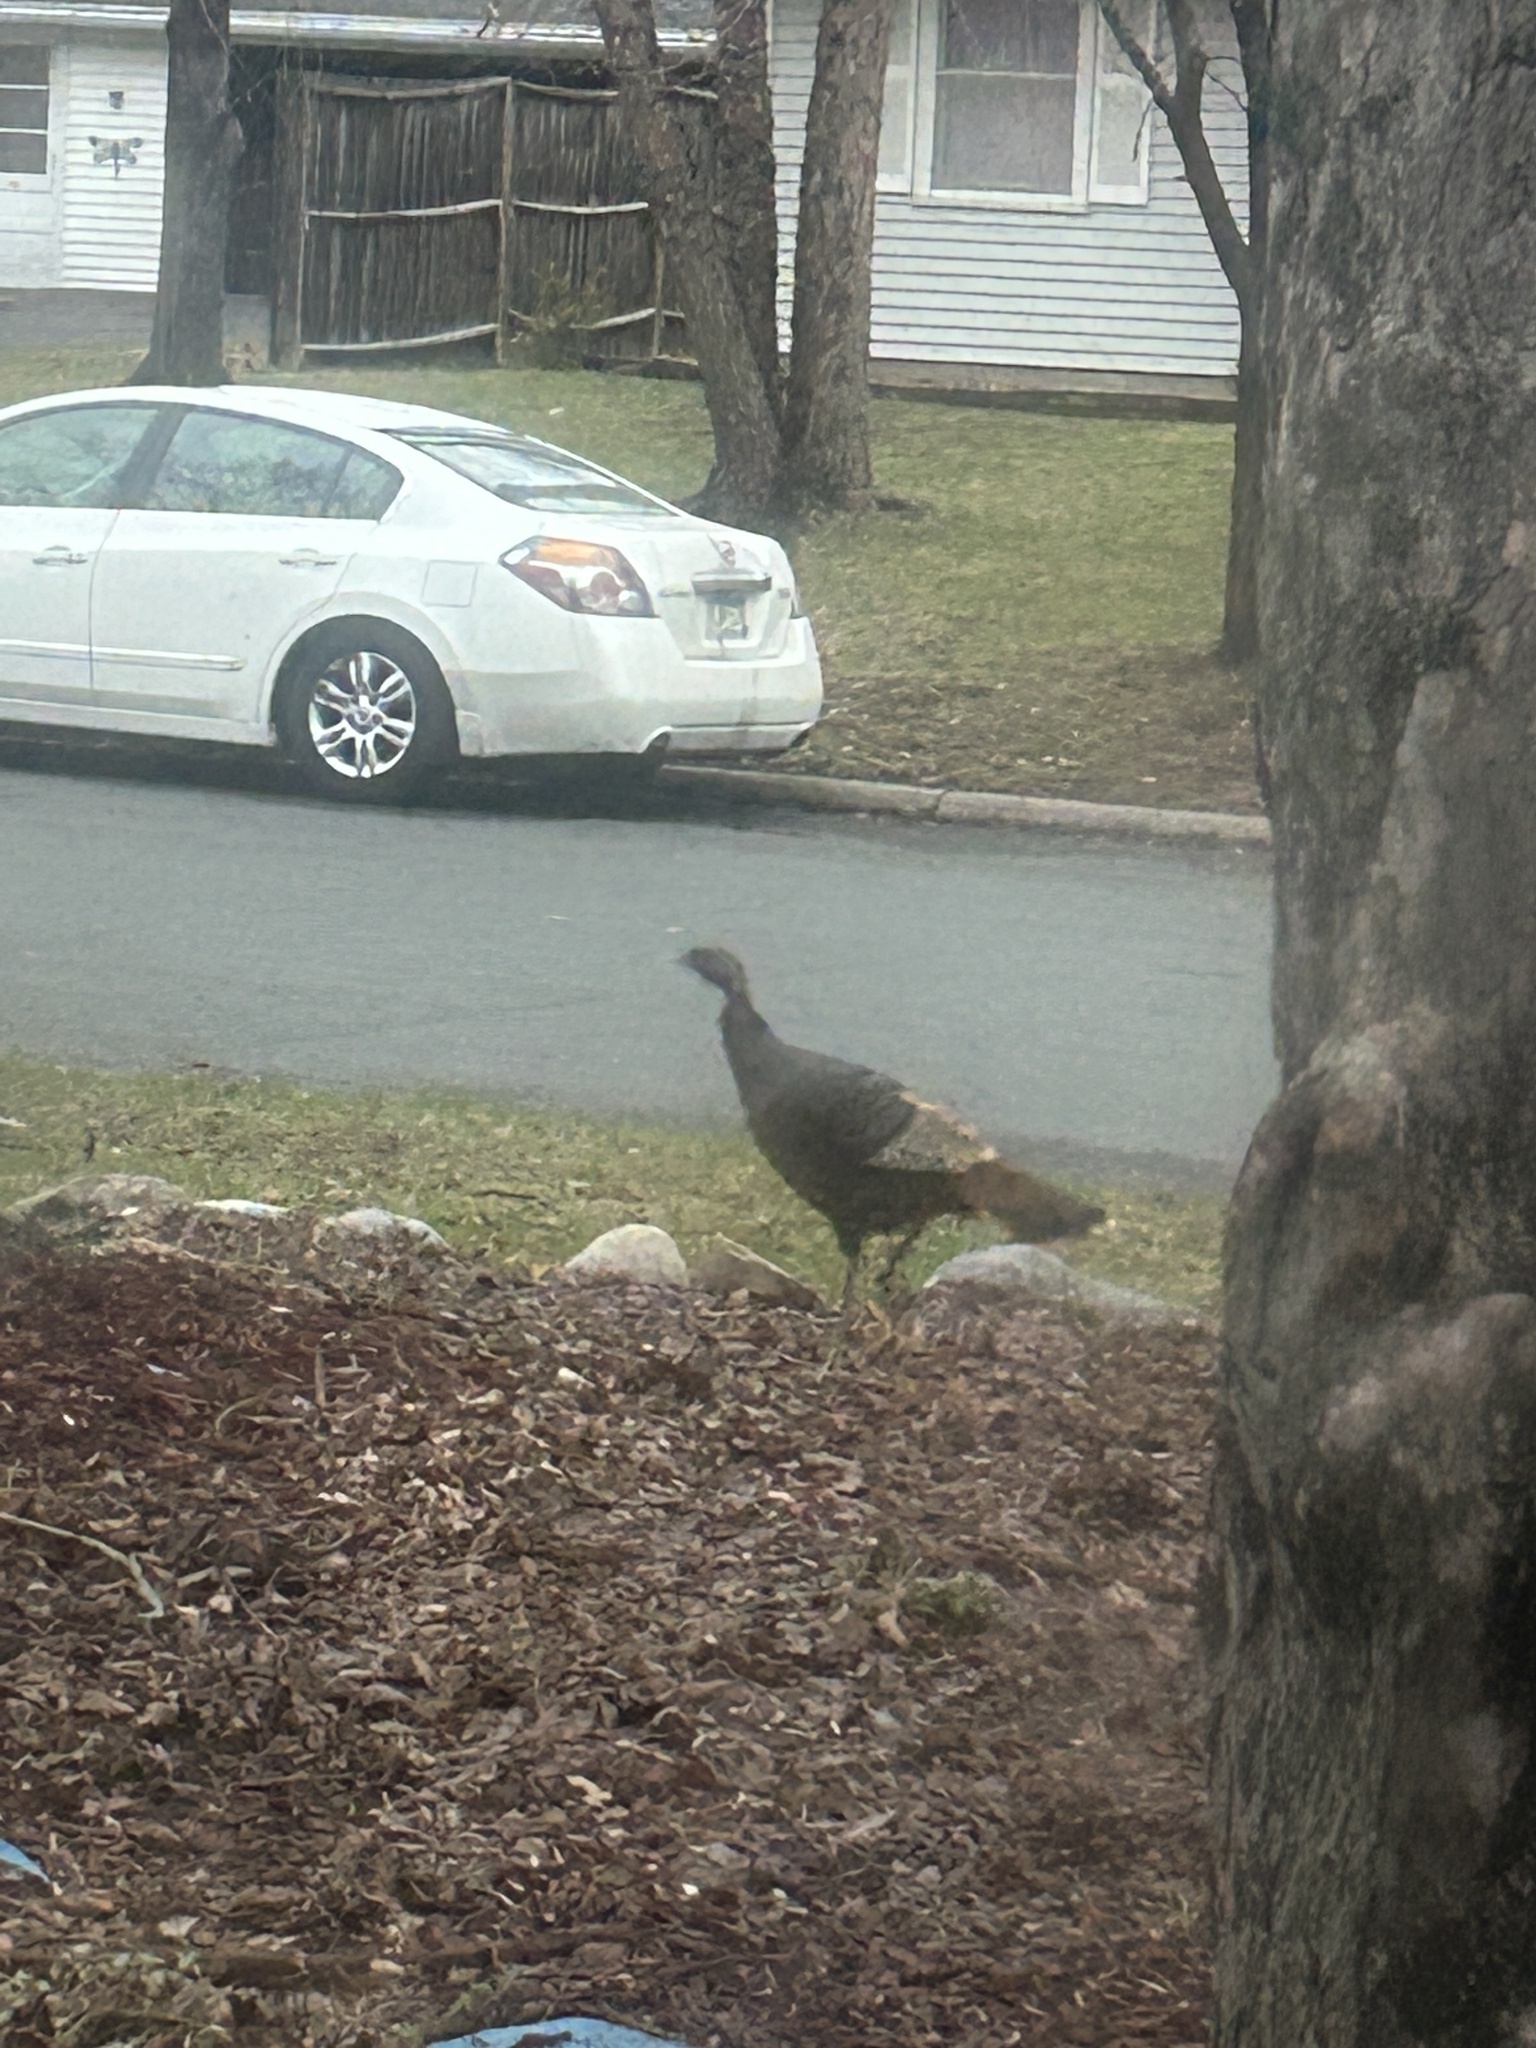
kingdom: Animalia
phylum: Chordata
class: Aves
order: Galliformes
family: Phasianidae
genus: Meleagris
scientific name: Meleagris gallopavo
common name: Wild turkey
